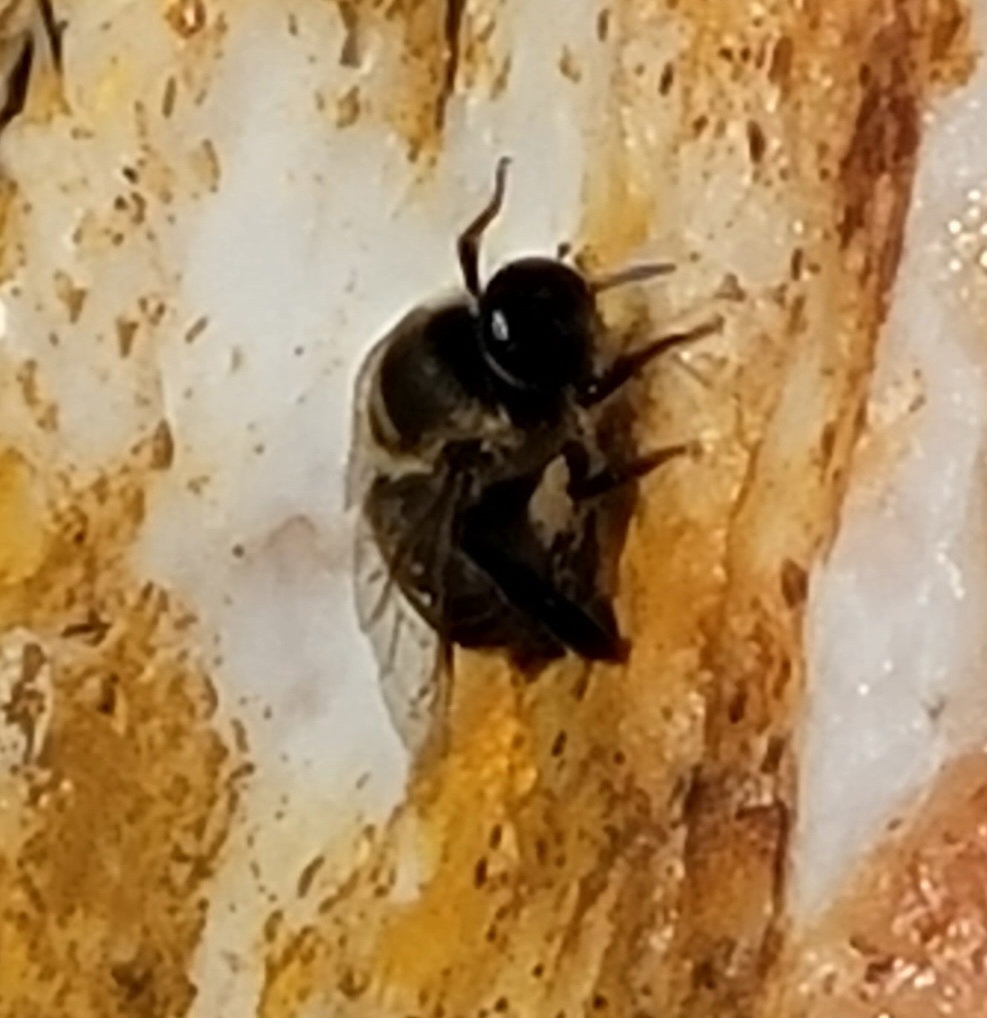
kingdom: Animalia
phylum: Arthropoda
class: Insecta
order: Hymenoptera
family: Apidae
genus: Apis
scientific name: Apis mellifera
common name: Honey bee
